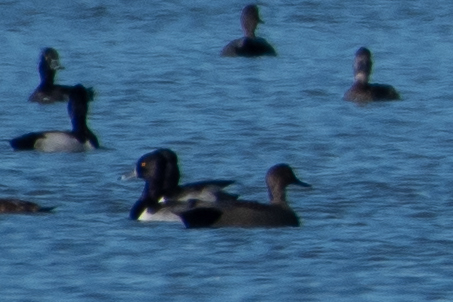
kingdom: Animalia
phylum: Chordata
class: Aves
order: Anseriformes
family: Anatidae
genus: Aythya
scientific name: Aythya collaris
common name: Ring-necked duck
